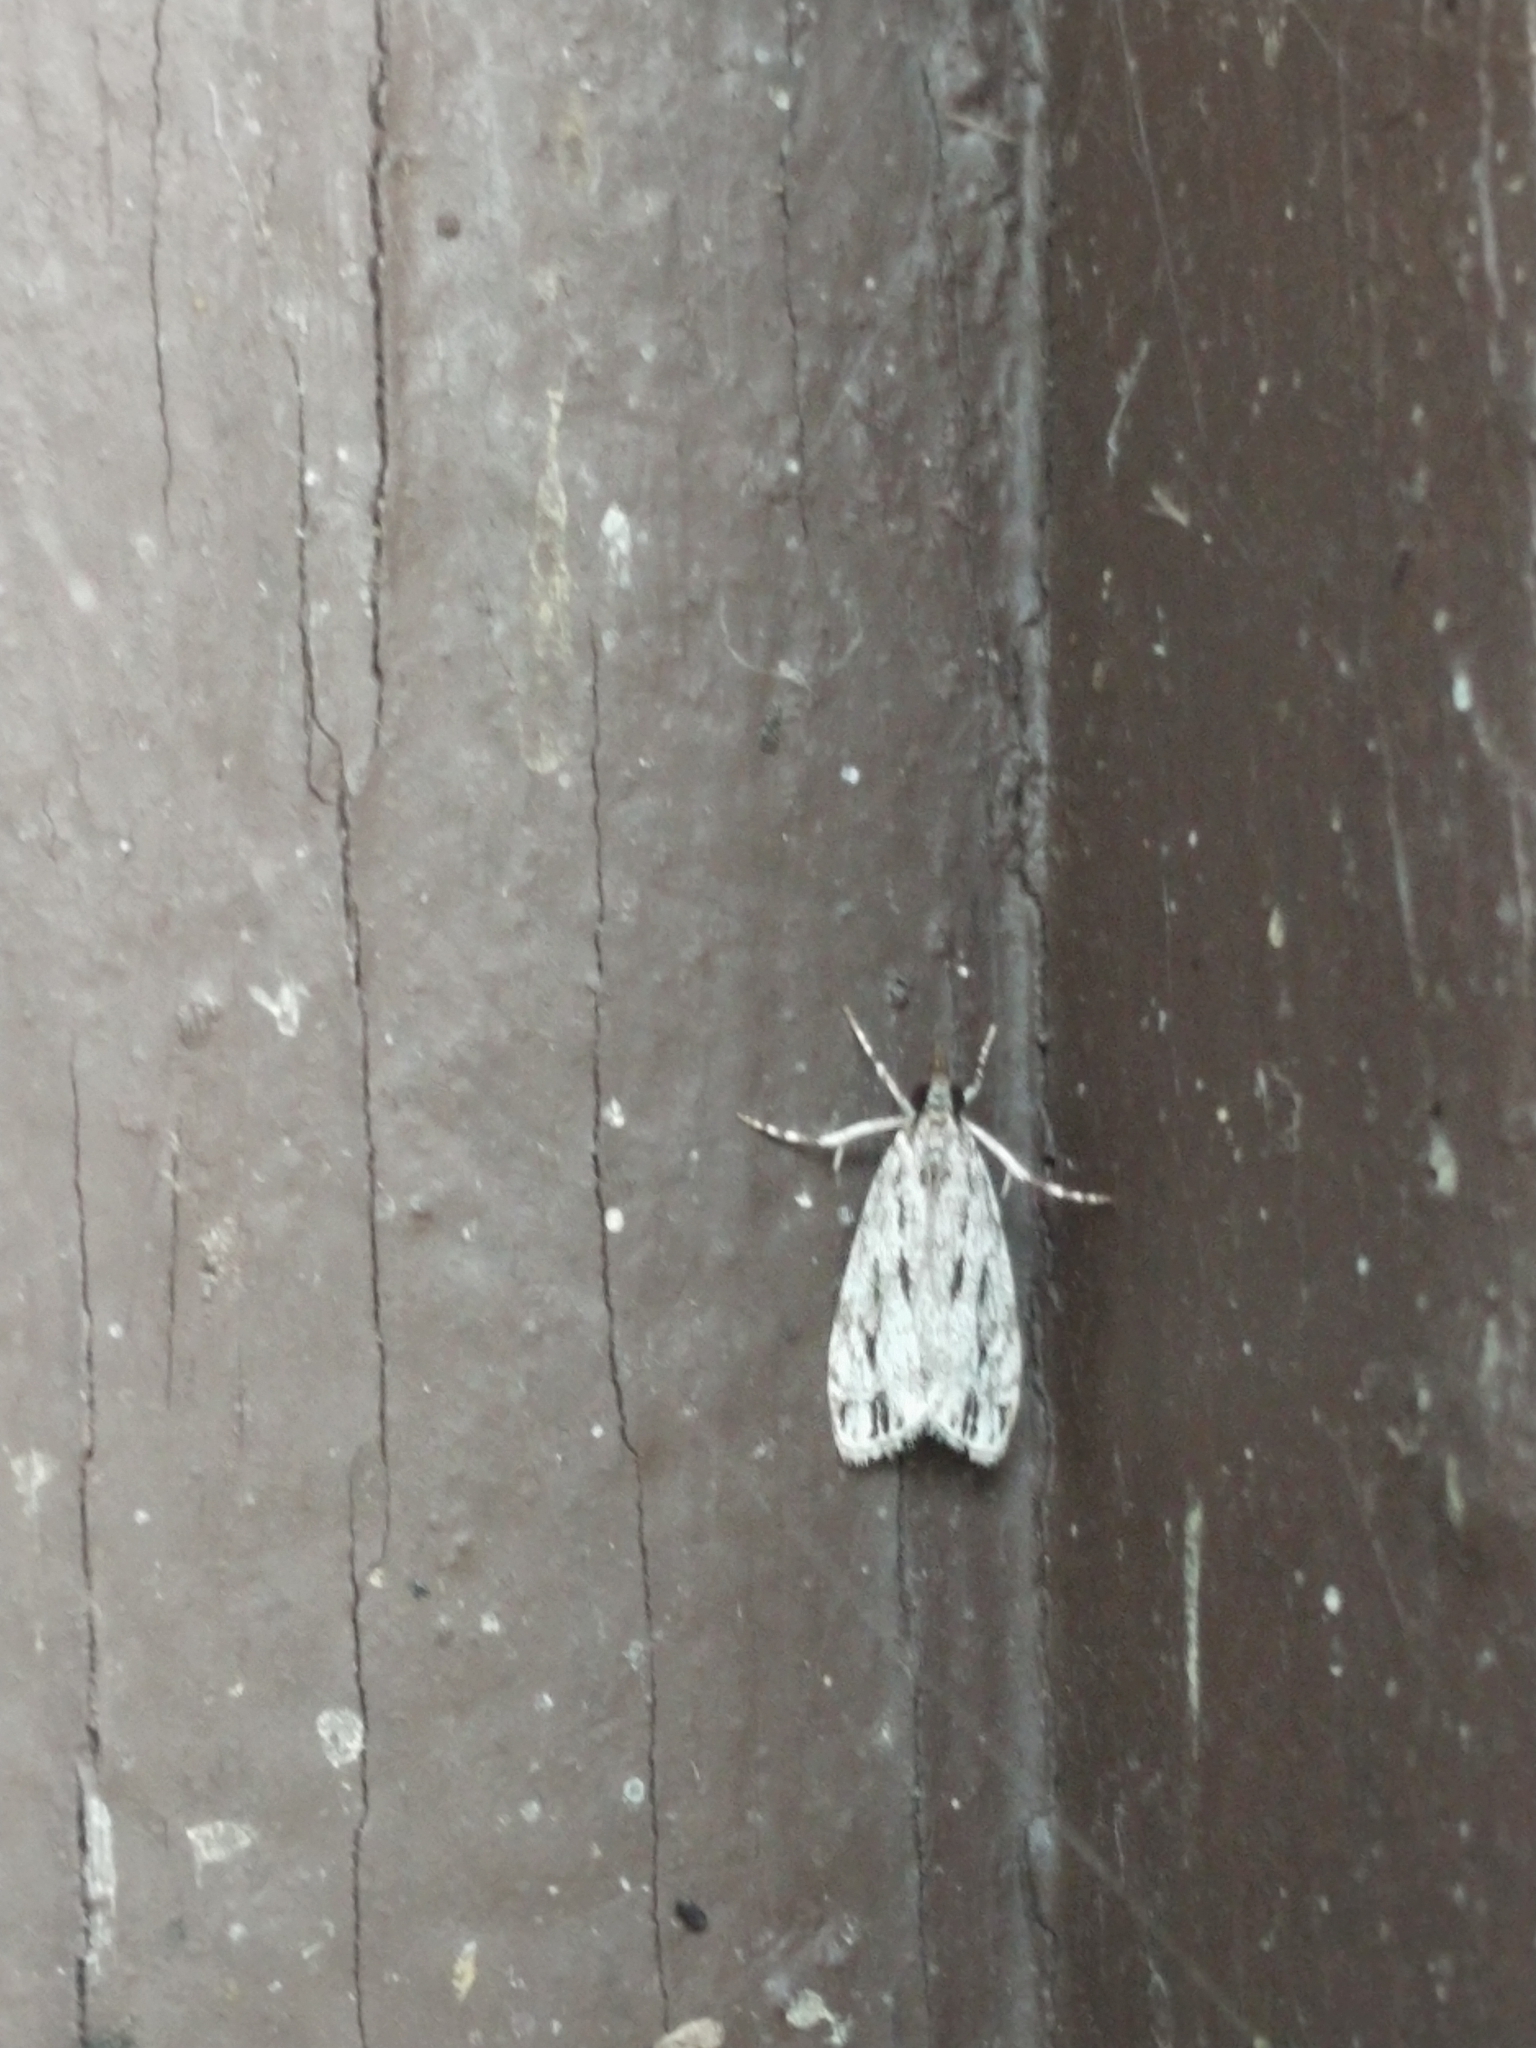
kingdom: Animalia
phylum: Arthropoda
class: Insecta
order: Lepidoptera
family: Crambidae
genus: Eudonia
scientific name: Eudonia strigalis
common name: Striped eudonia moth
